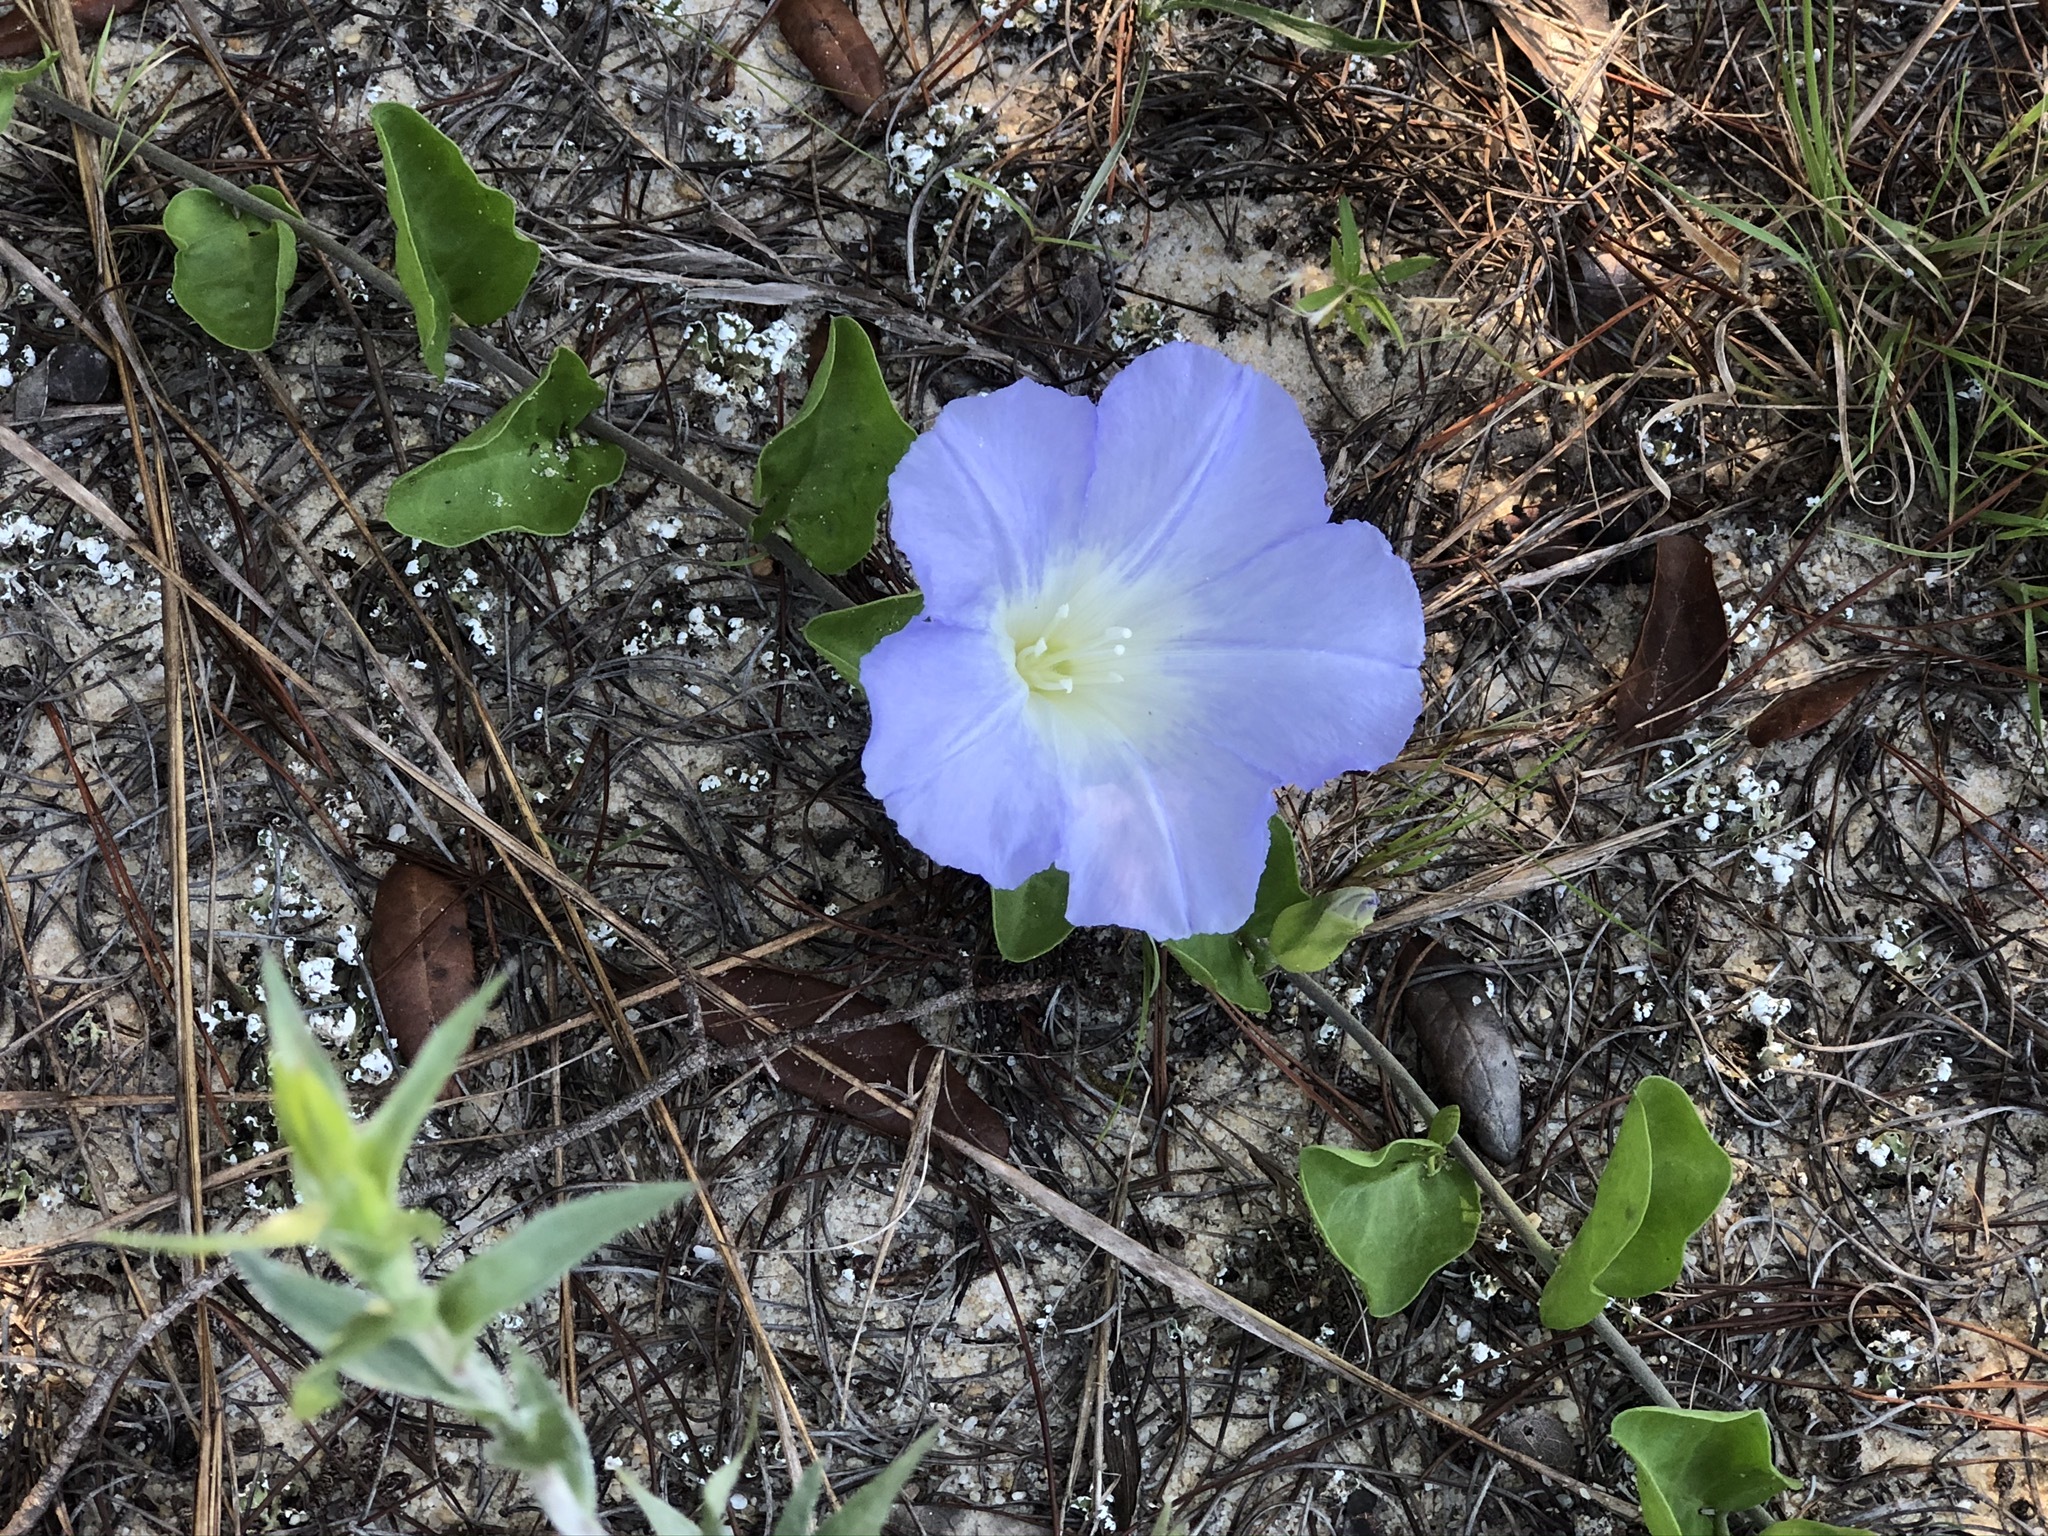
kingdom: Plantae
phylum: Tracheophyta
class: Magnoliopsida
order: Solanales
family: Convolvulaceae
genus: Bonamia
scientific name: Bonamia grandiflora
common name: Florida bonamia
